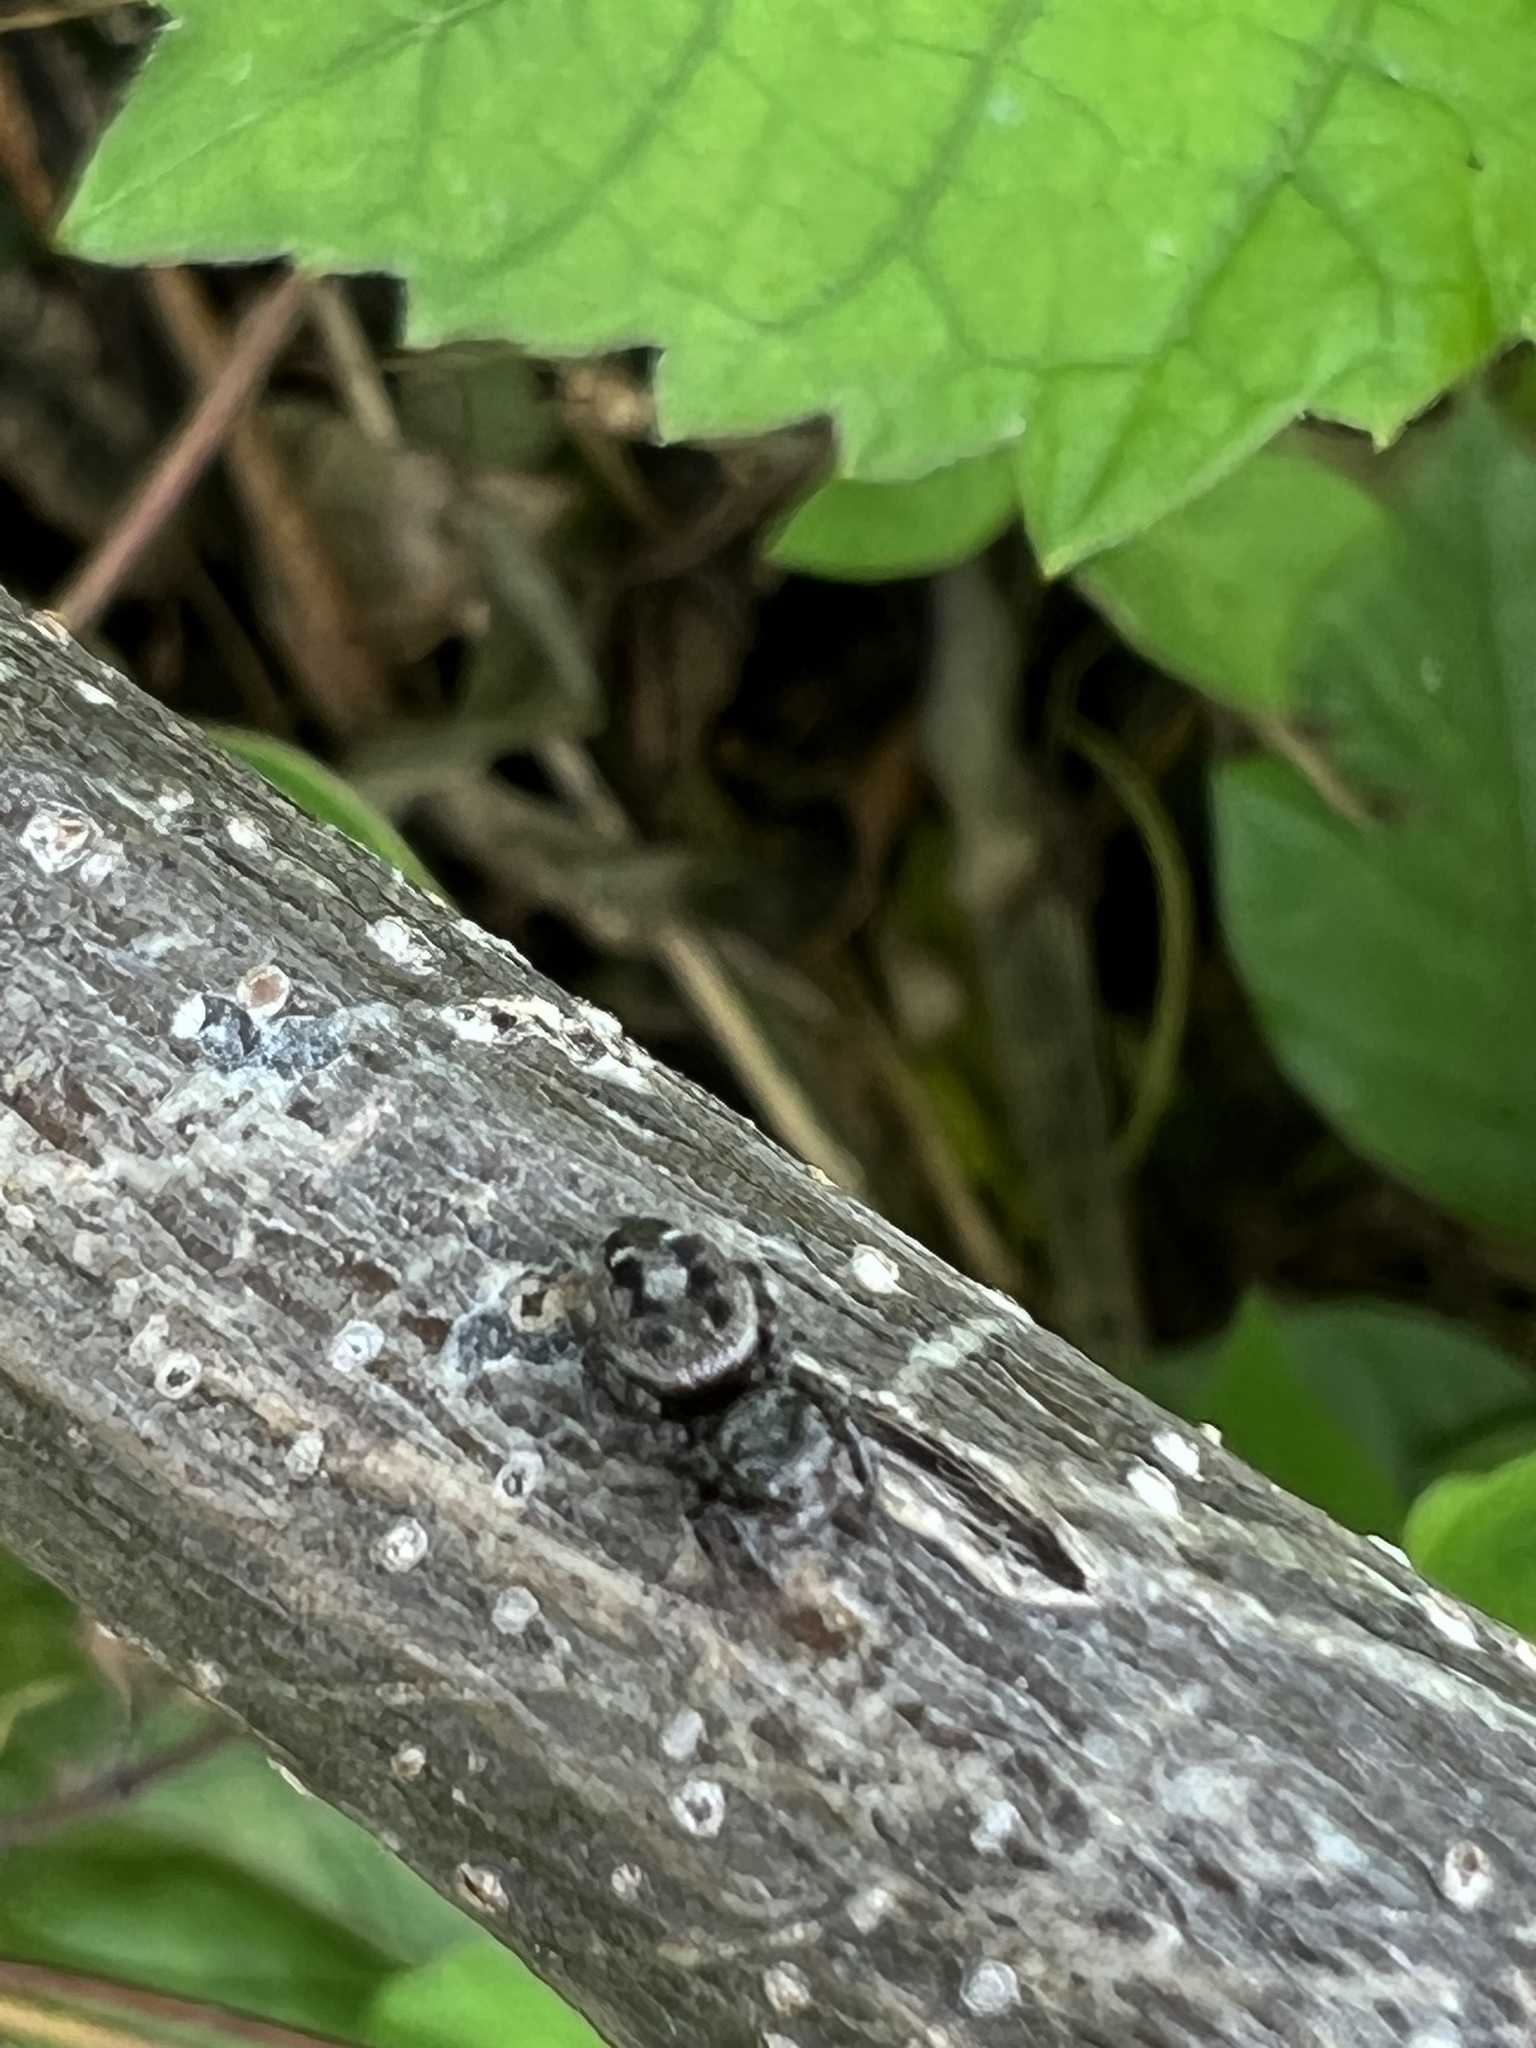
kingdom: Animalia
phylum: Arthropoda
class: Arachnida
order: Araneae
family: Salticidae
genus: Phidippus
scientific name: Phidippus putnami
